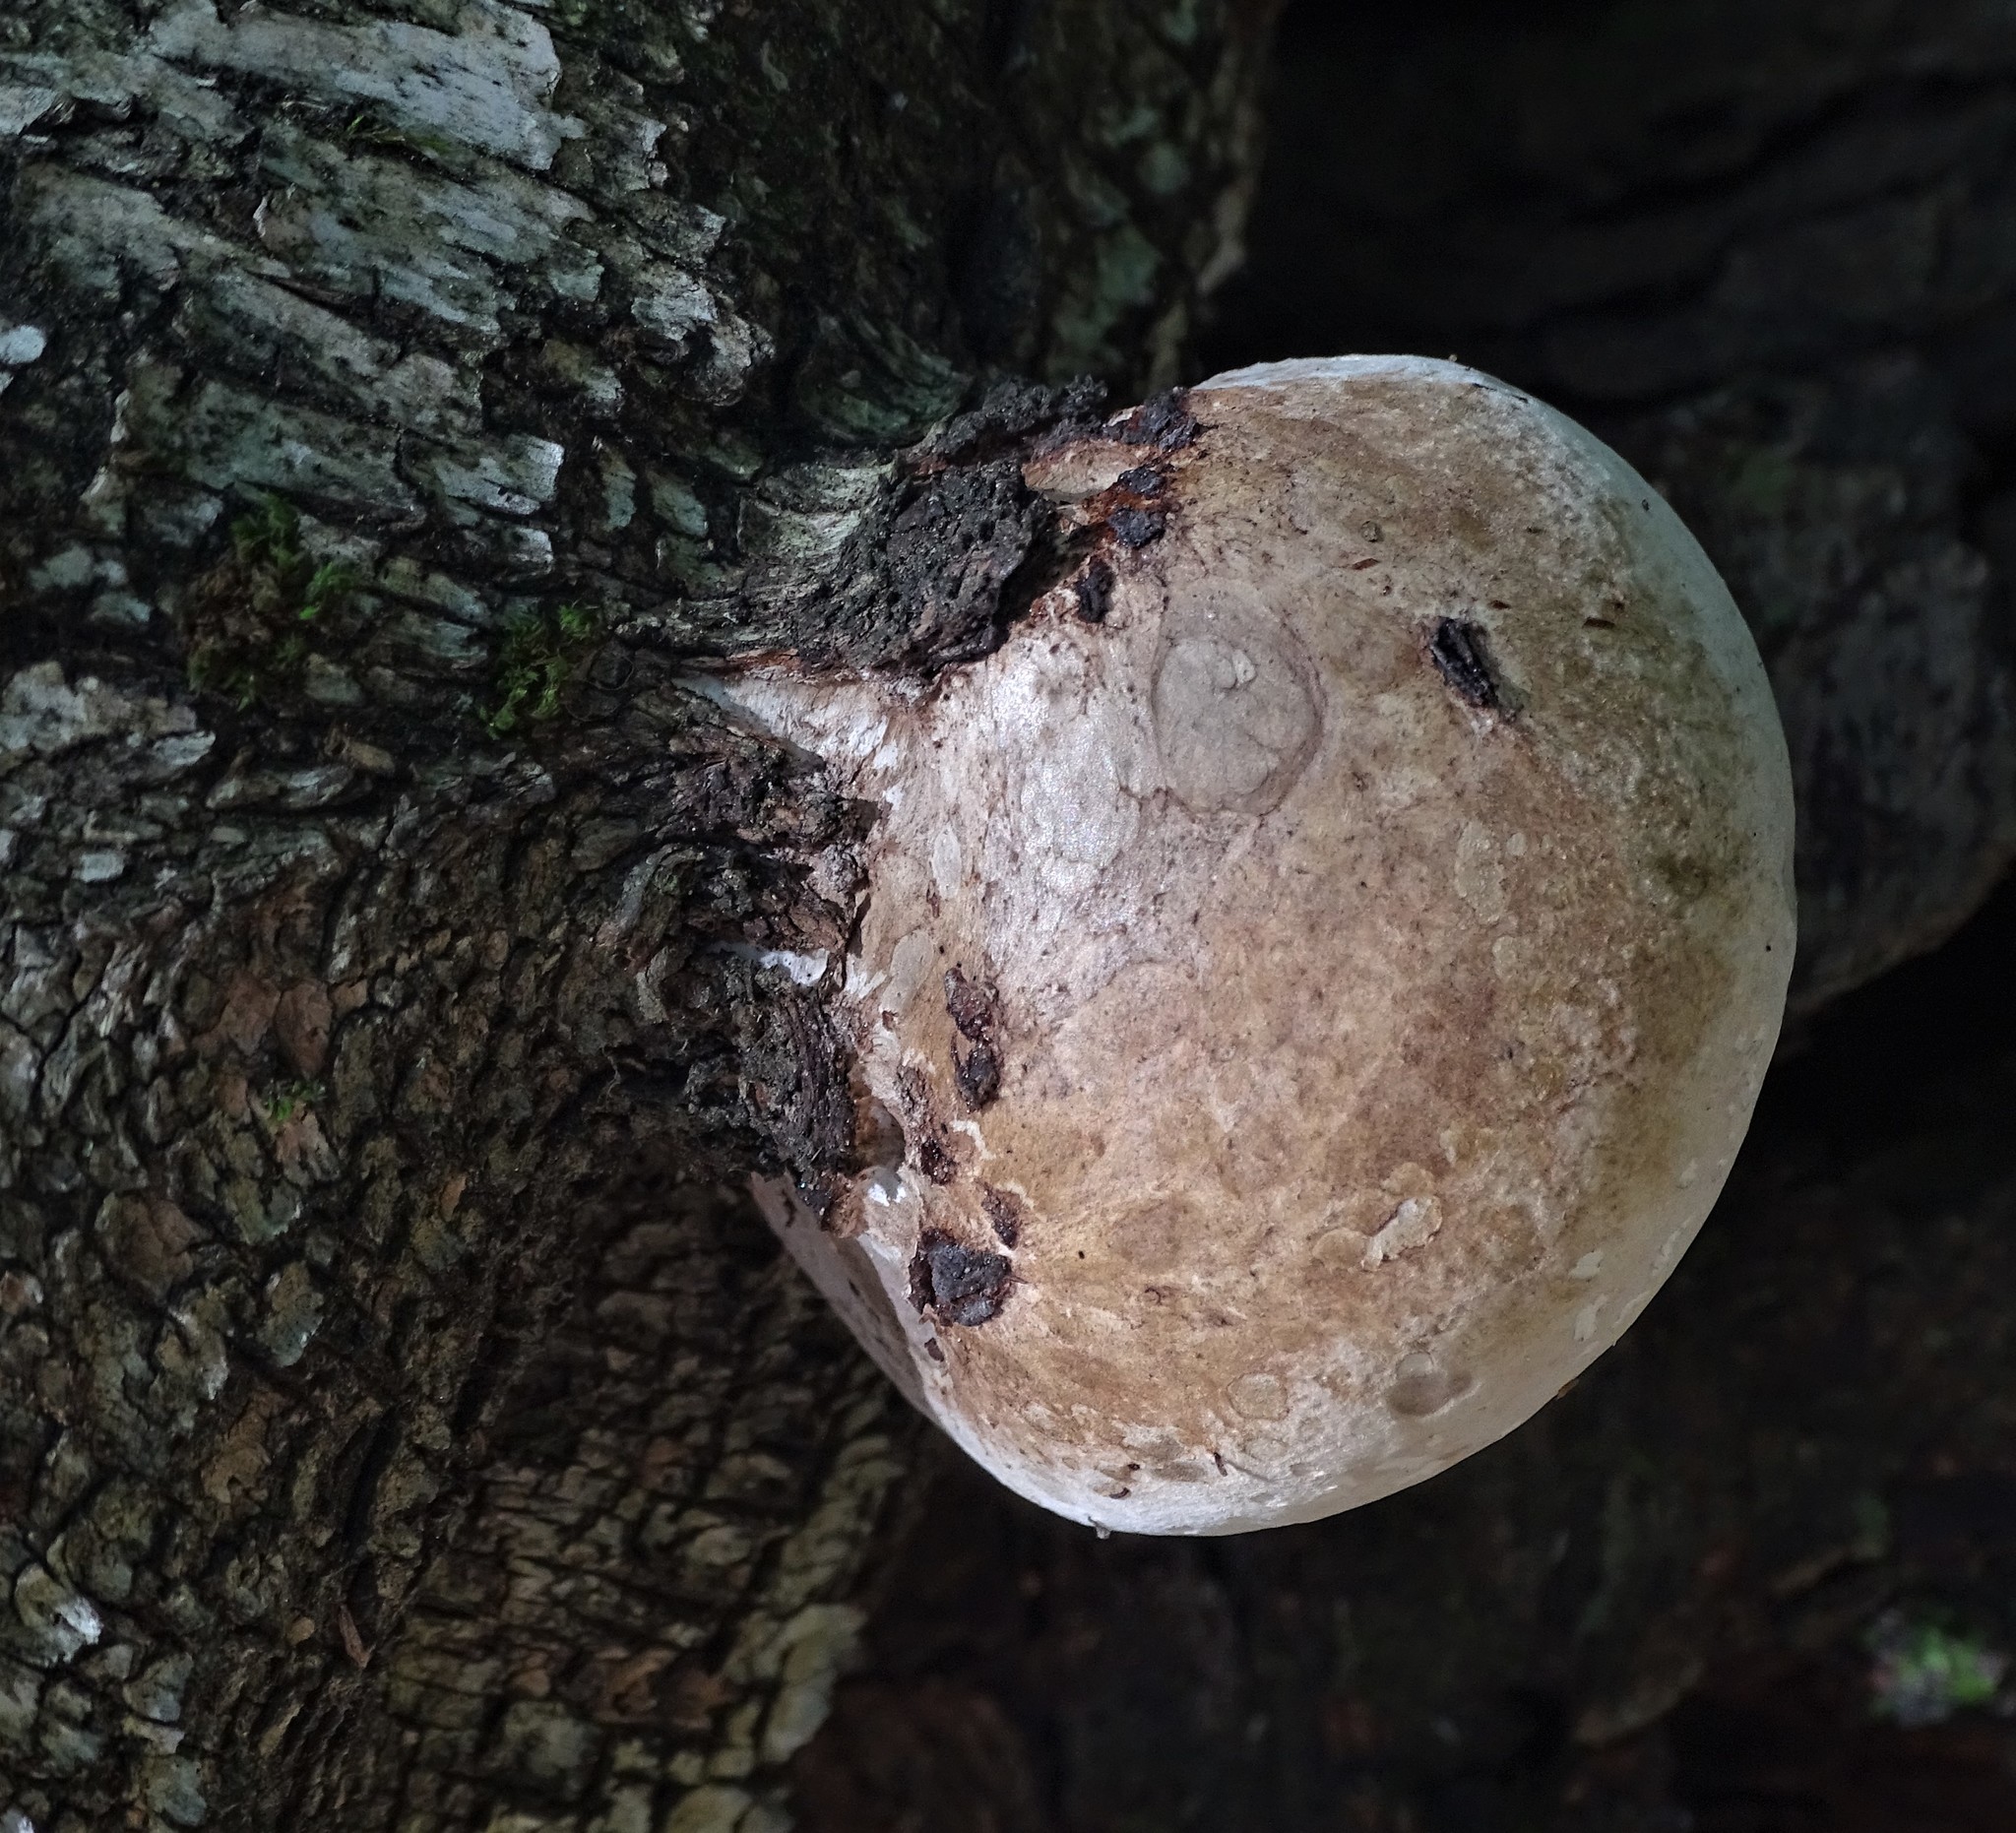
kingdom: Fungi
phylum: Basidiomycota
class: Agaricomycetes
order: Polyporales
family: Fomitopsidaceae
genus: Fomitopsis
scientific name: Fomitopsis betulina
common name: Birch polypore
